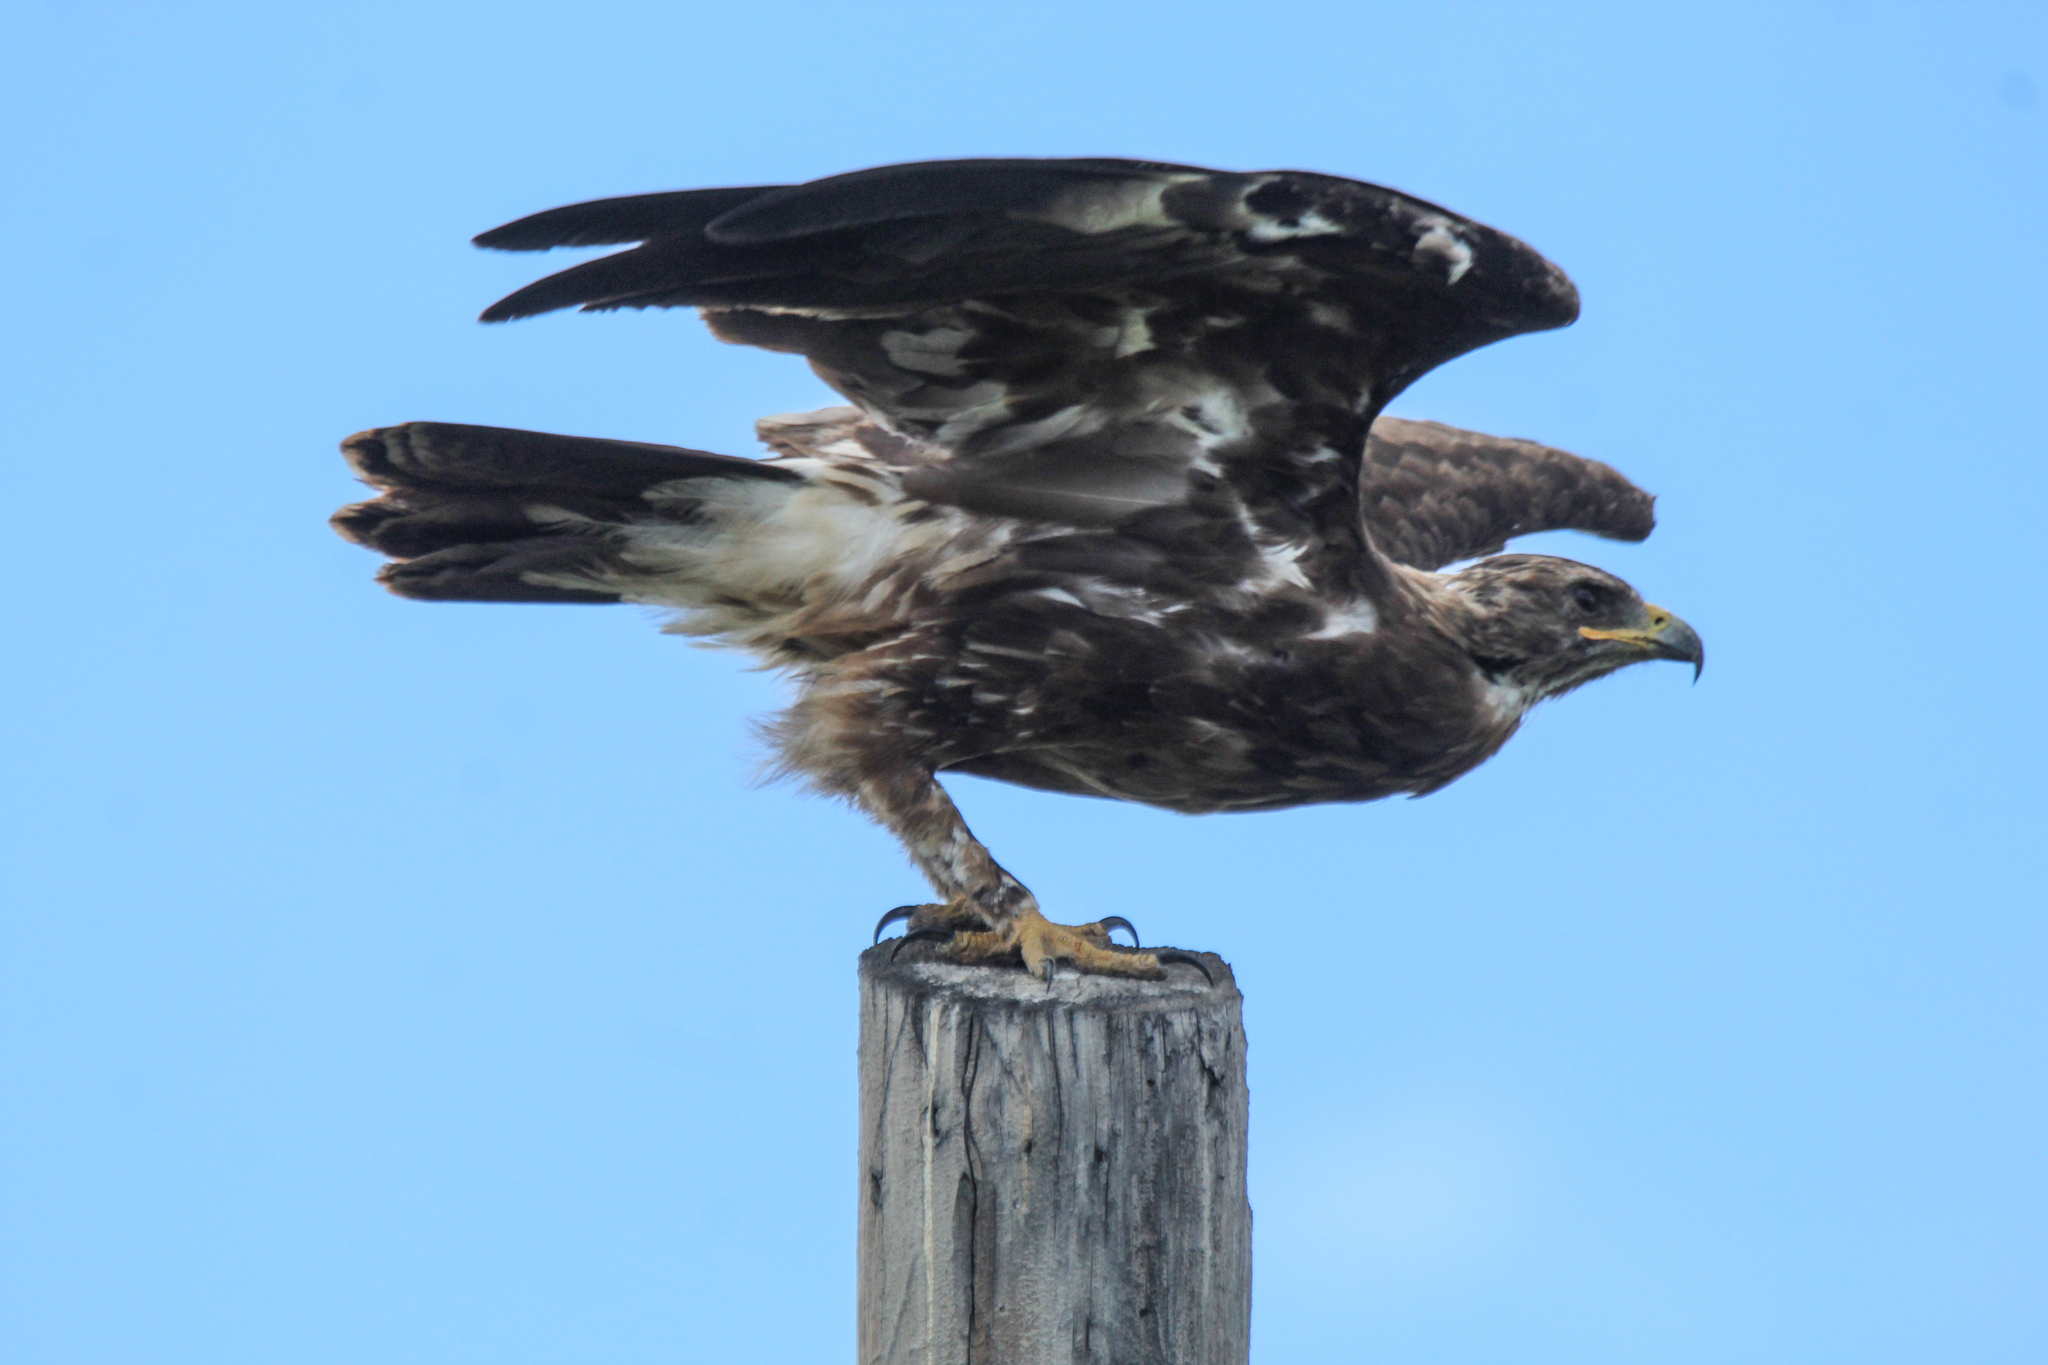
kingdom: Animalia
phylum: Chordata
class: Aves
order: Accipitriformes
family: Accipitridae
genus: Aquila
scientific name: Aquila clanga
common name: Greater spotted eagle
